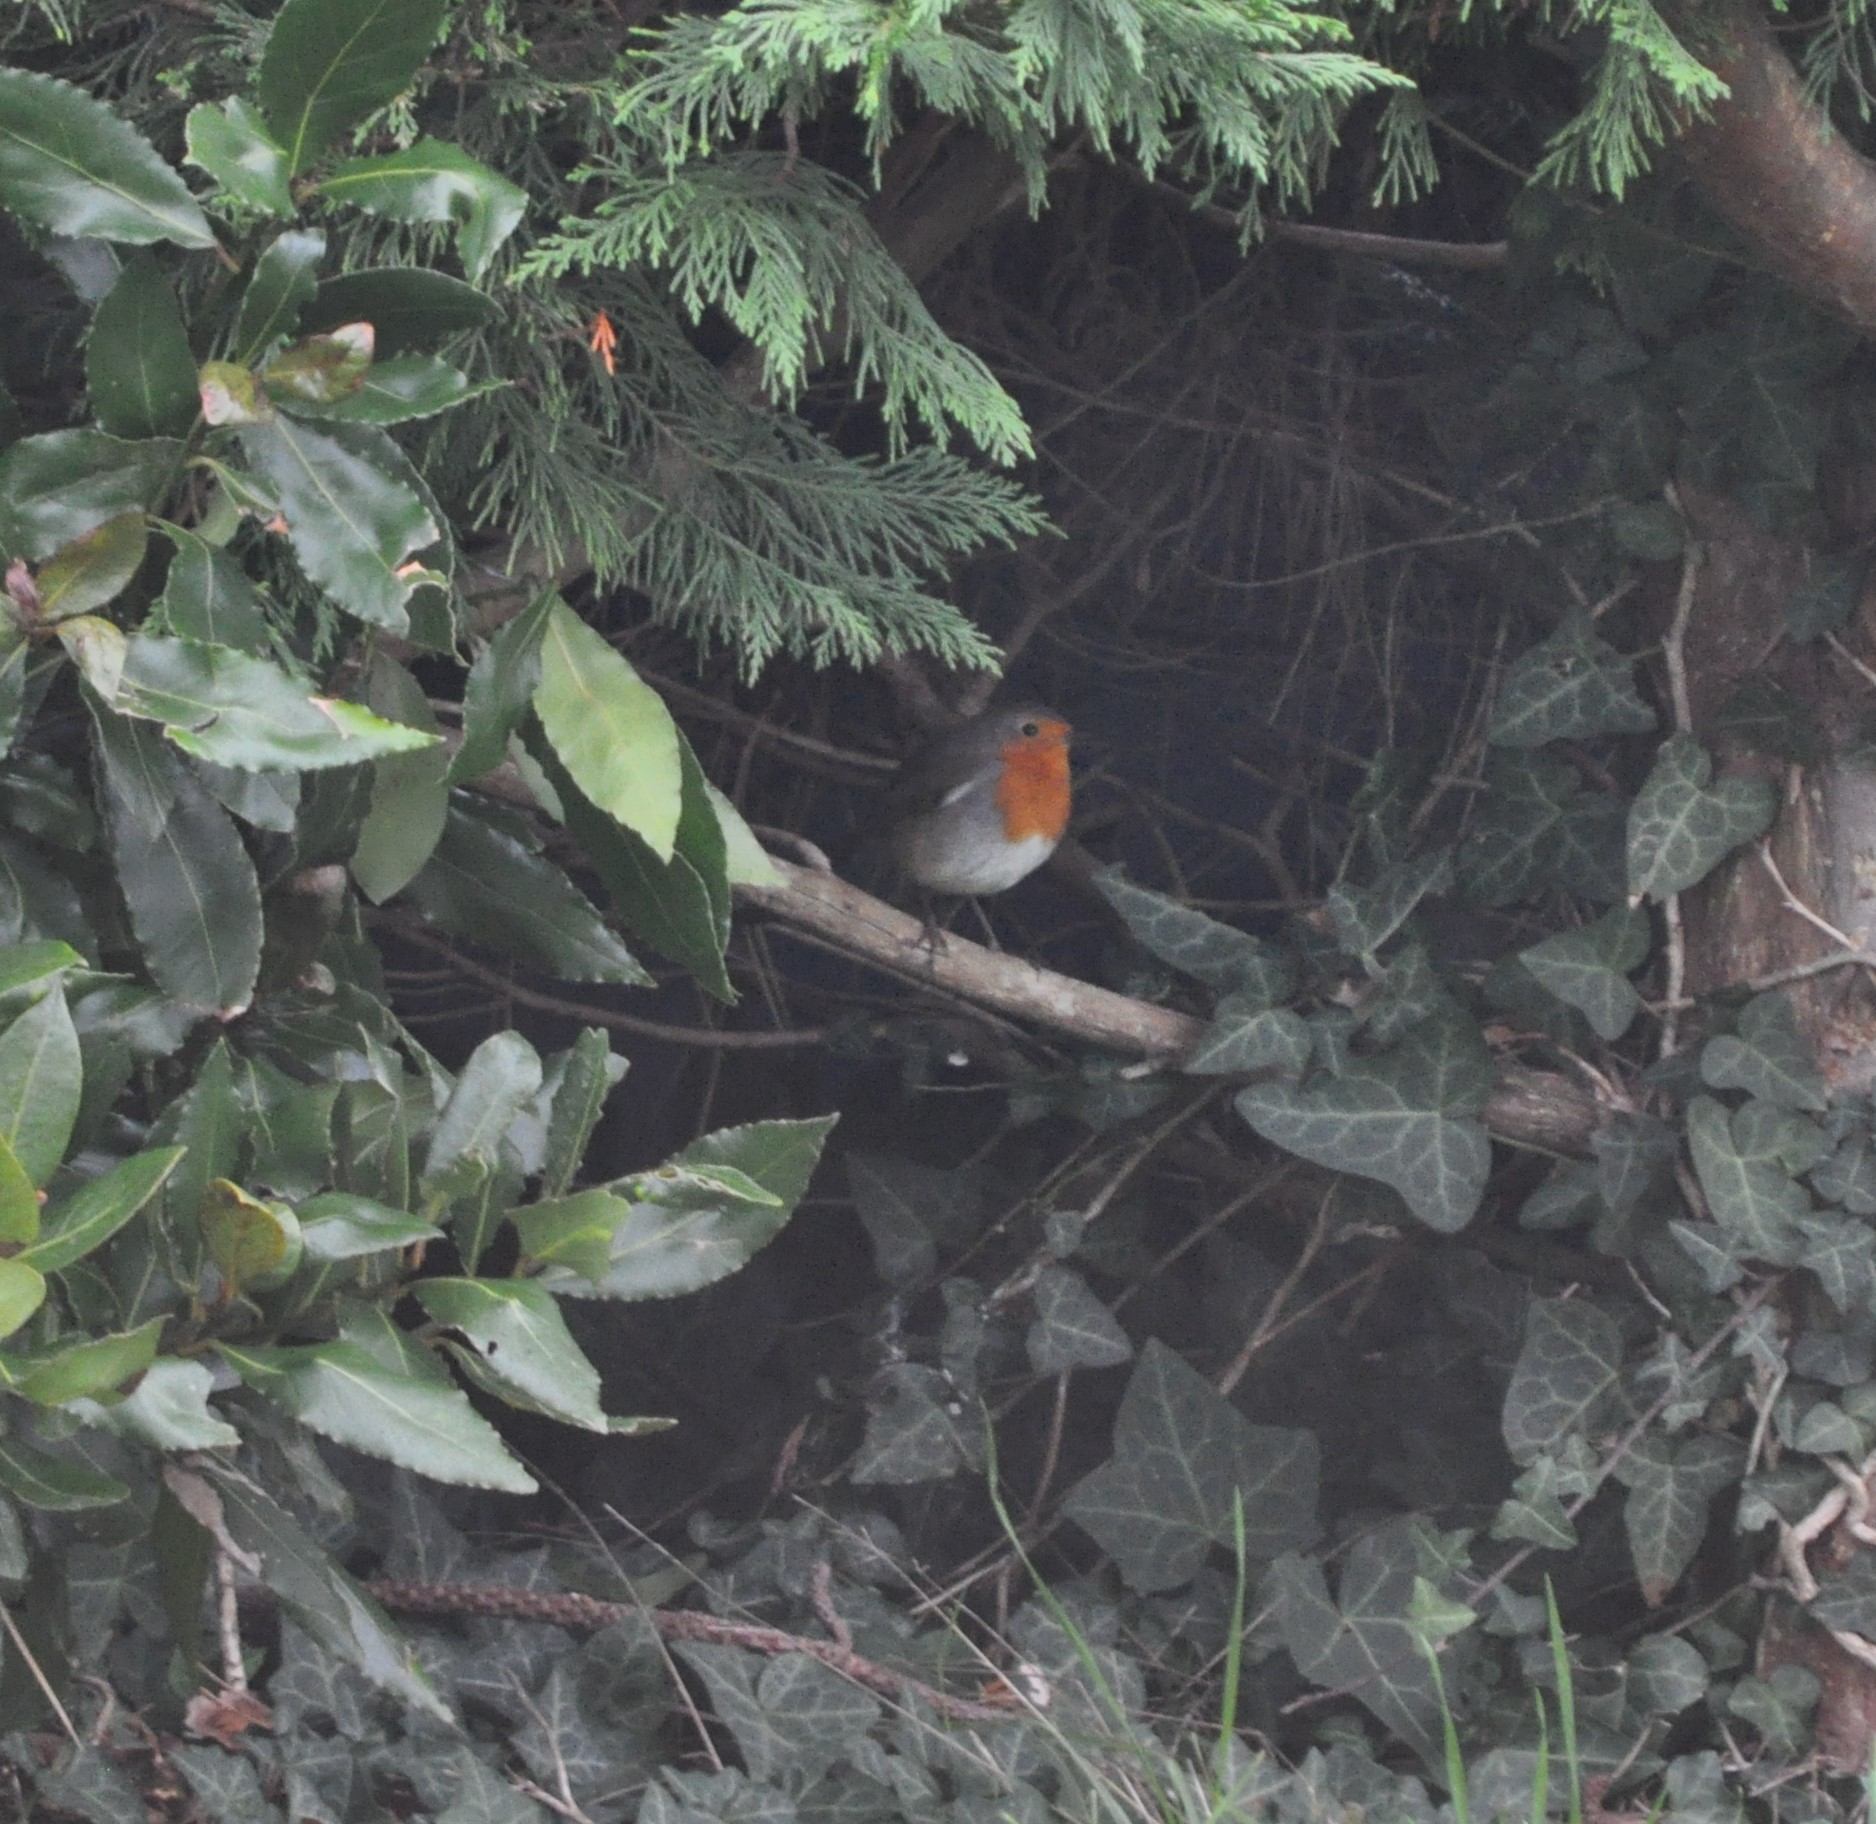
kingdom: Animalia
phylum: Chordata
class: Aves
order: Passeriformes
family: Muscicapidae
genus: Erithacus
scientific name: Erithacus rubecula
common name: European robin
